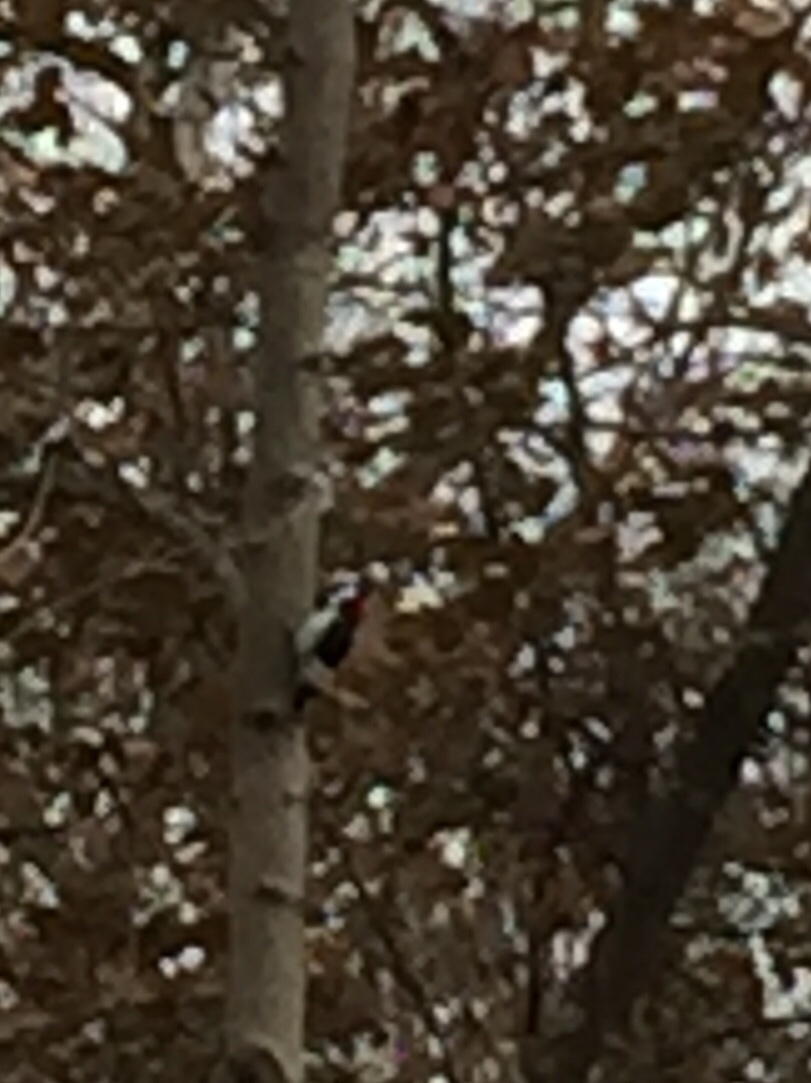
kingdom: Animalia
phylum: Chordata
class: Aves
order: Piciformes
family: Picidae
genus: Melanerpes
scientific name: Melanerpes erythrocephalus
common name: Red-headed woodpecker
